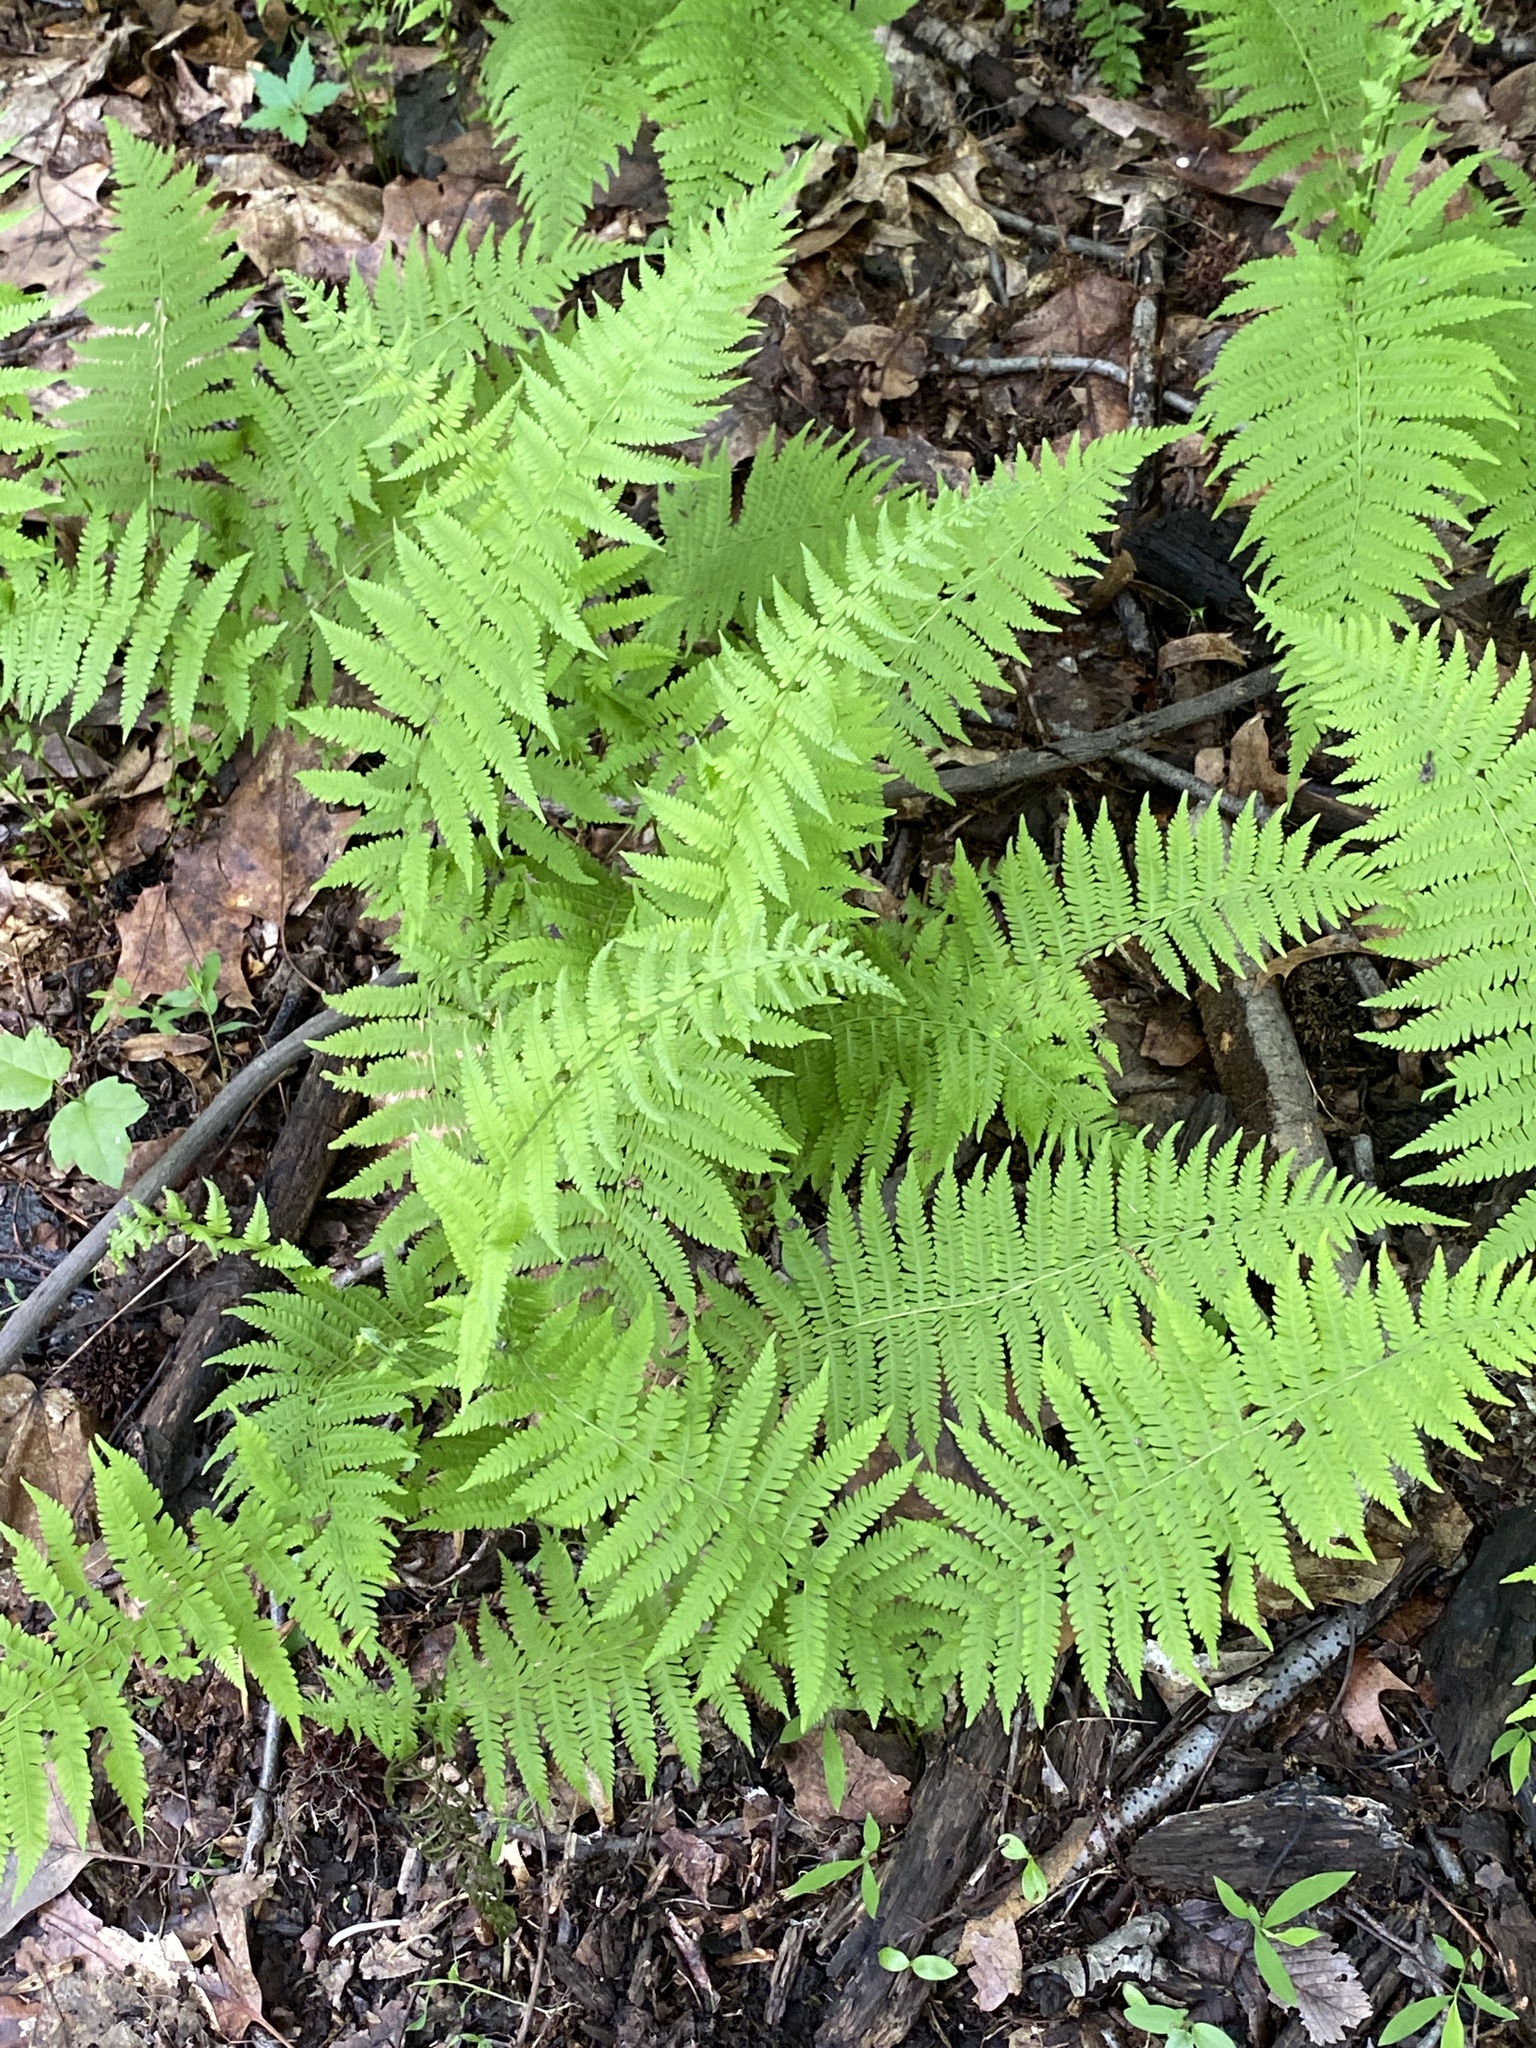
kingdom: Plantae
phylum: Tracheophyta
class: Polypodiopsida
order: Polypodiales
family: Thelypteridaceae
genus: Amauropelta
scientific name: Amauropelta noveboracensis
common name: New york fern
